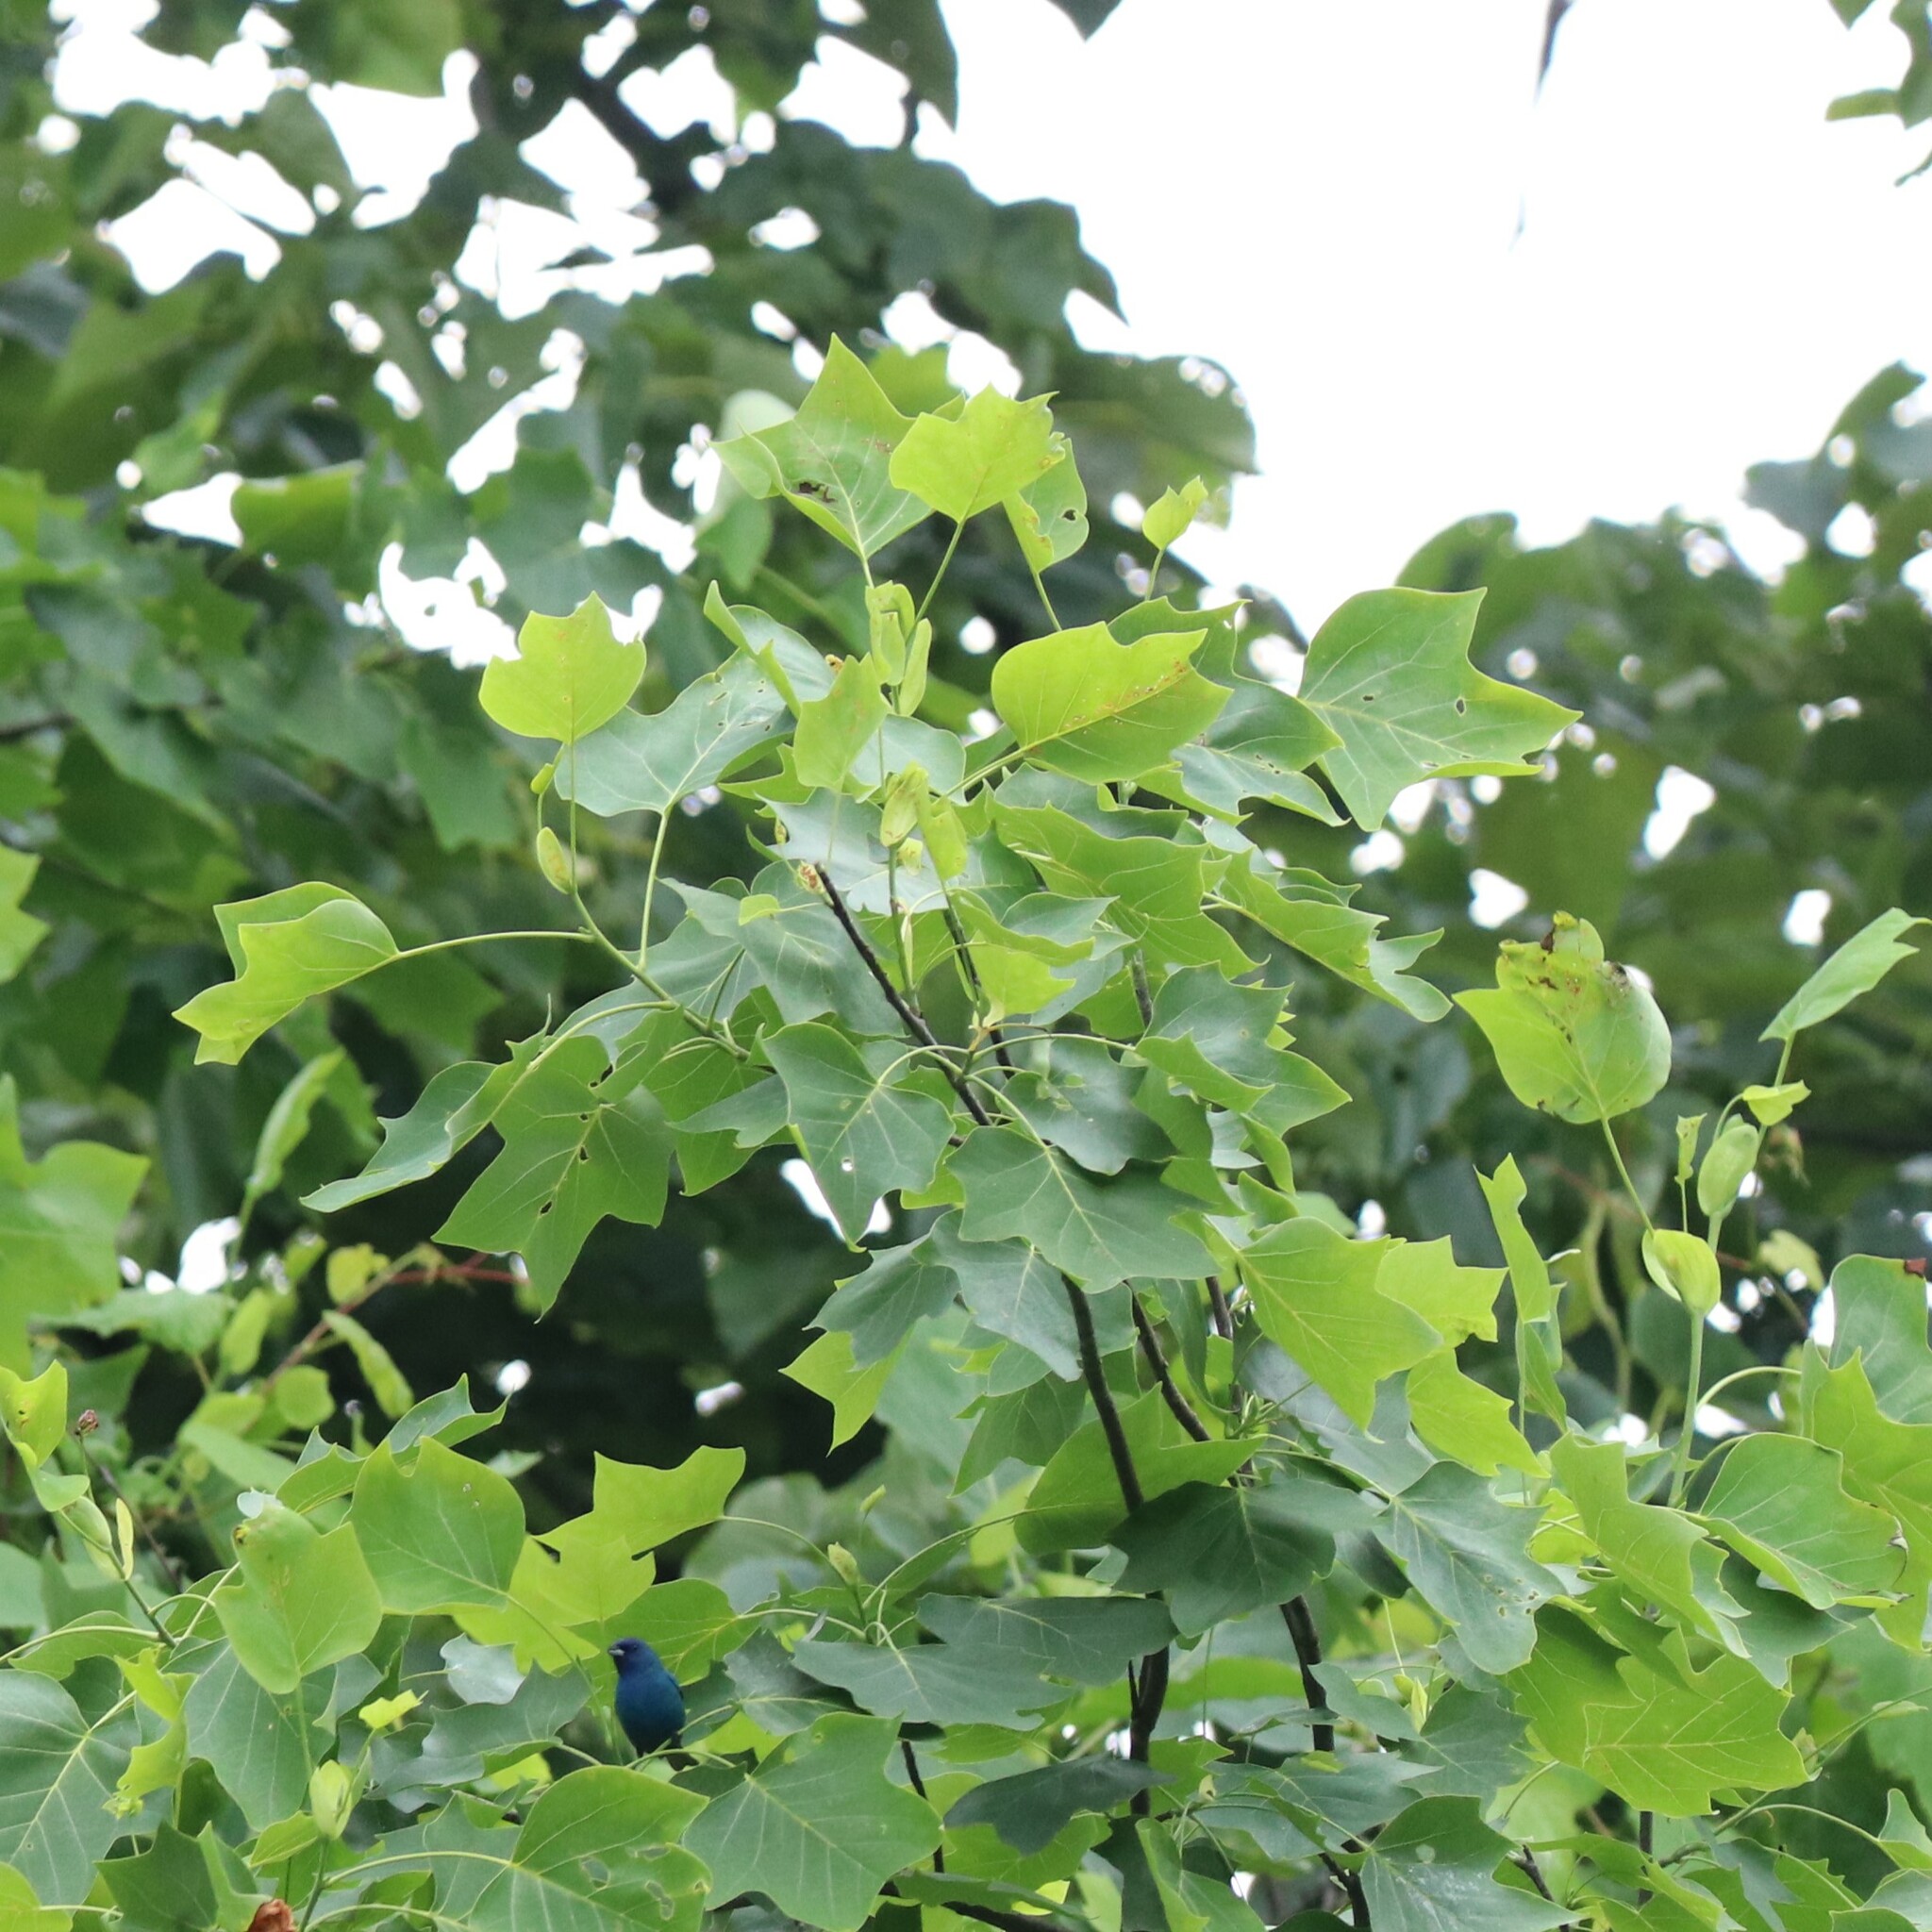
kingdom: Plantae
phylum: Tracheophyta
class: Magnoliopsida
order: Magnoliales
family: Magnoliaceae
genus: Liriodendron
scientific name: Liriodendron tulipifera
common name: Tulip tree
